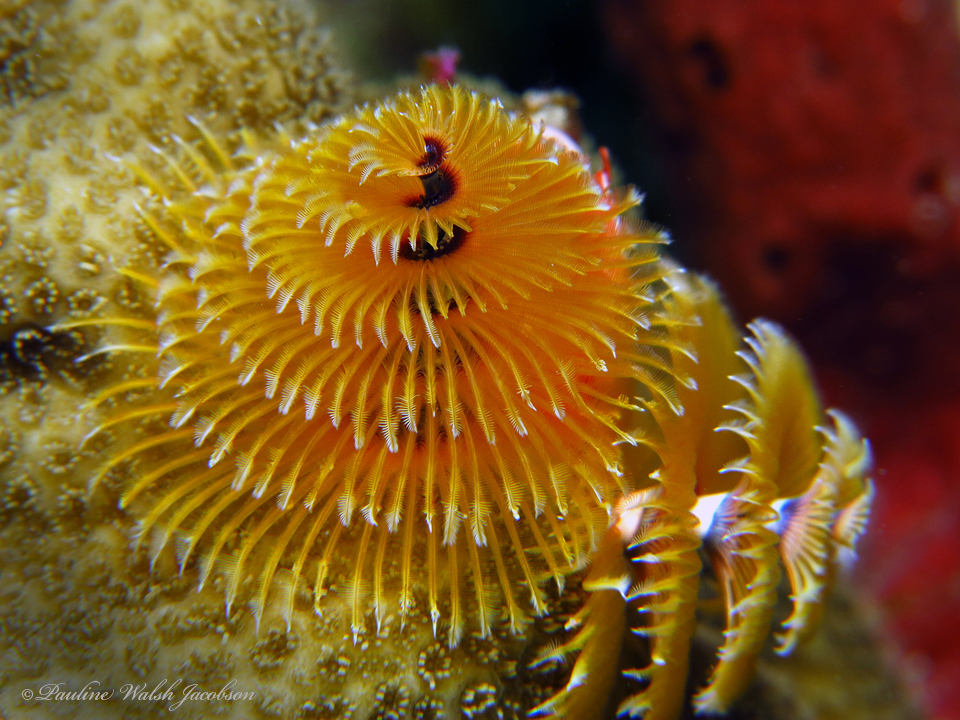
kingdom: Animalia
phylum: Annelida
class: Polychaeta
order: Sabellida
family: Serpulidae
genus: Spirobranchus
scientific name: Spirobranchus giganteus
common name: Christmas tree worm
